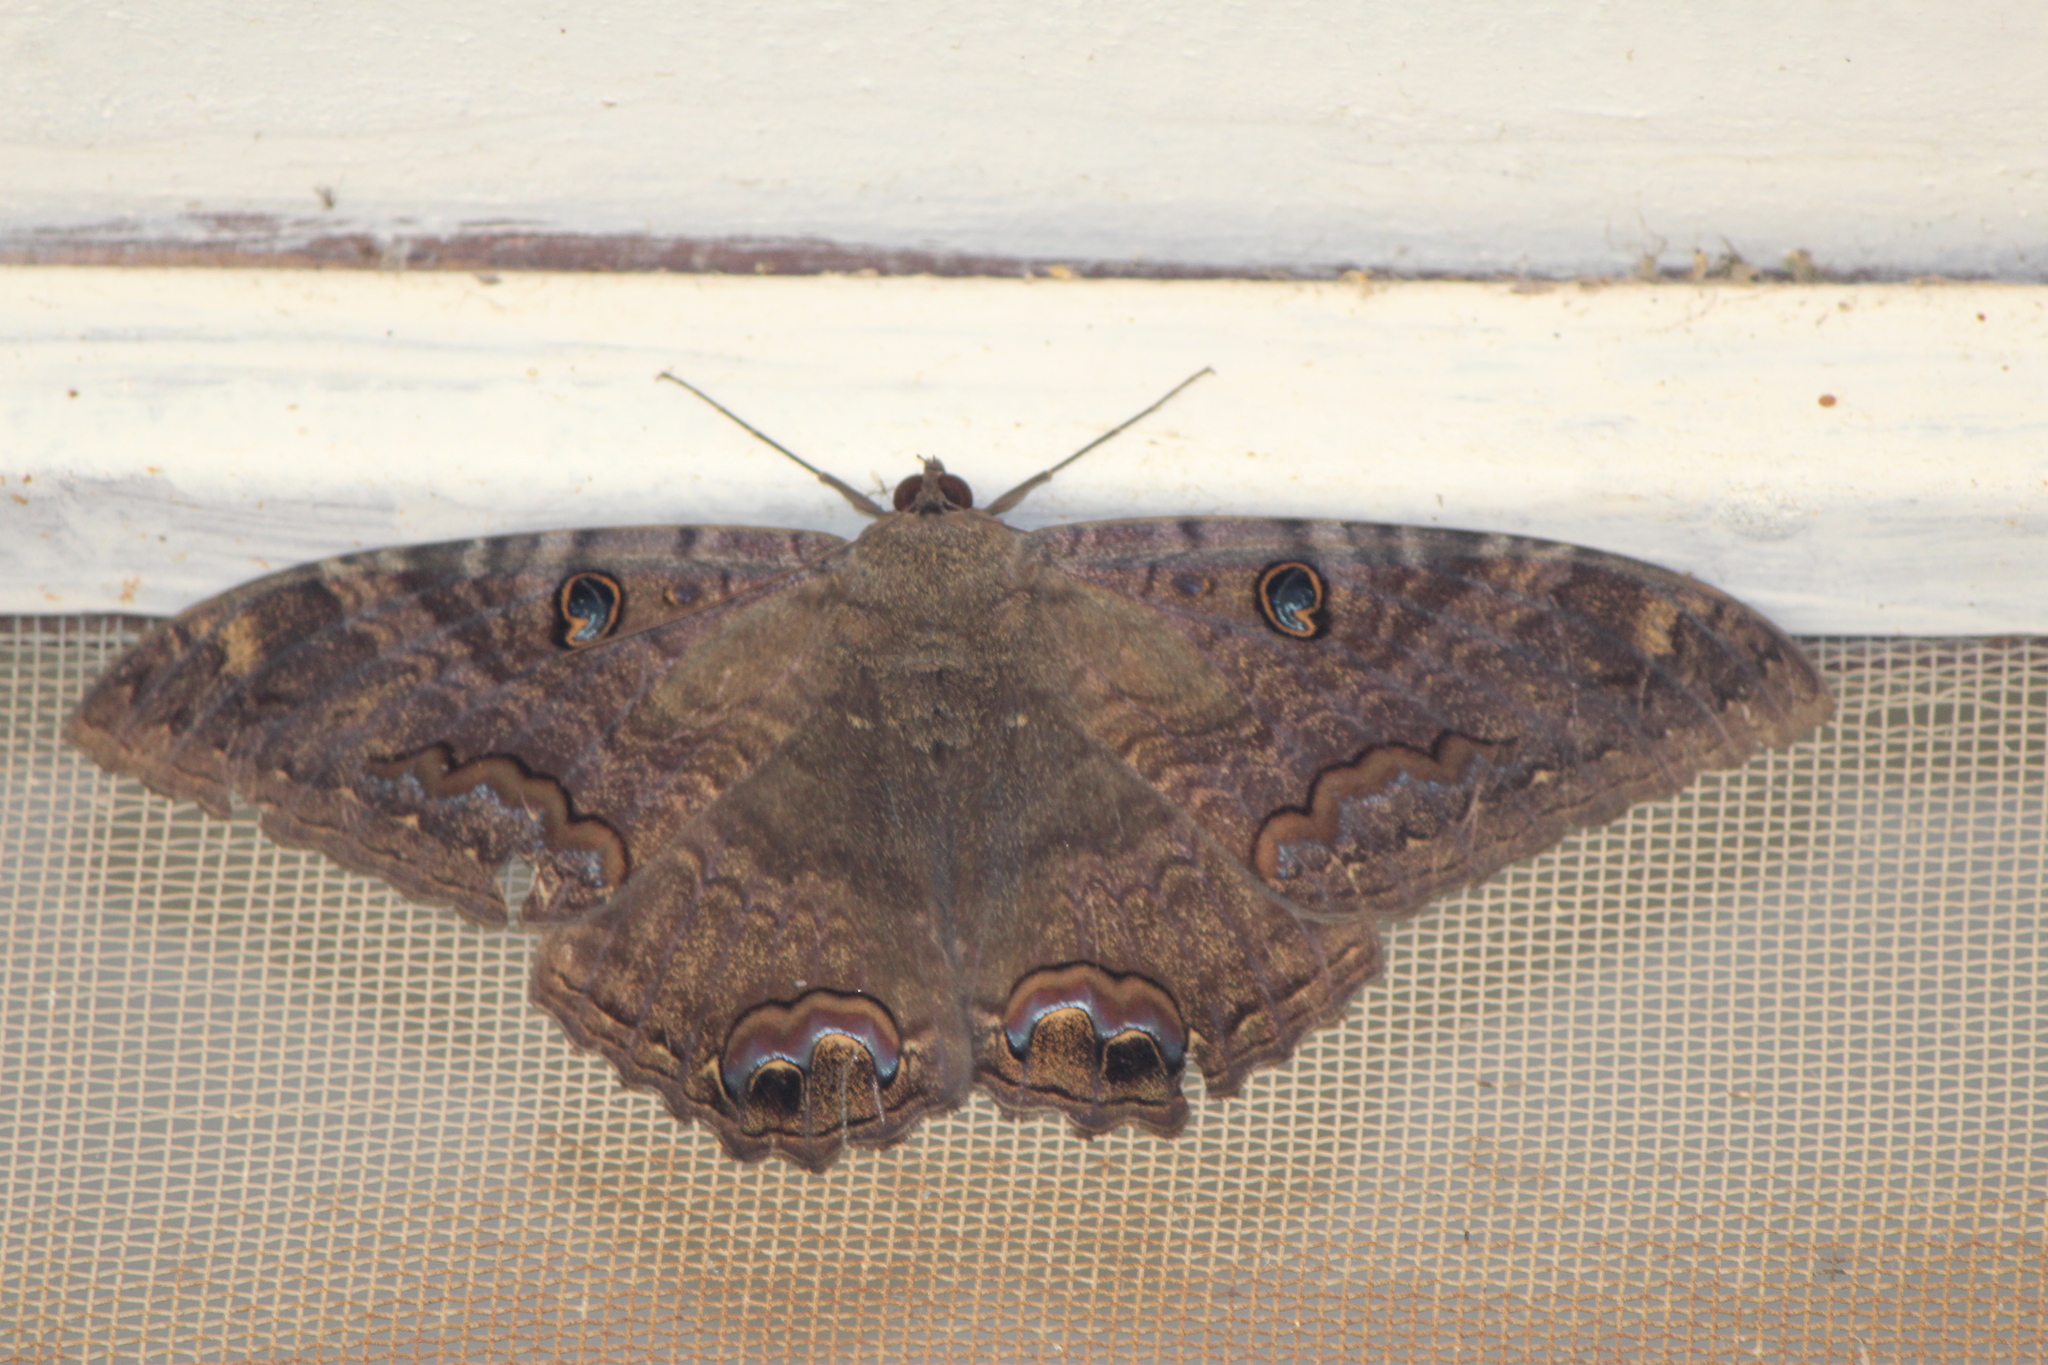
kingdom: Animalia
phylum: Arthropoda
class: Insecta
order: Lepidoptera
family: Erebidae
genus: Ascalapha
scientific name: Ascalapha odorata
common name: Black witch
